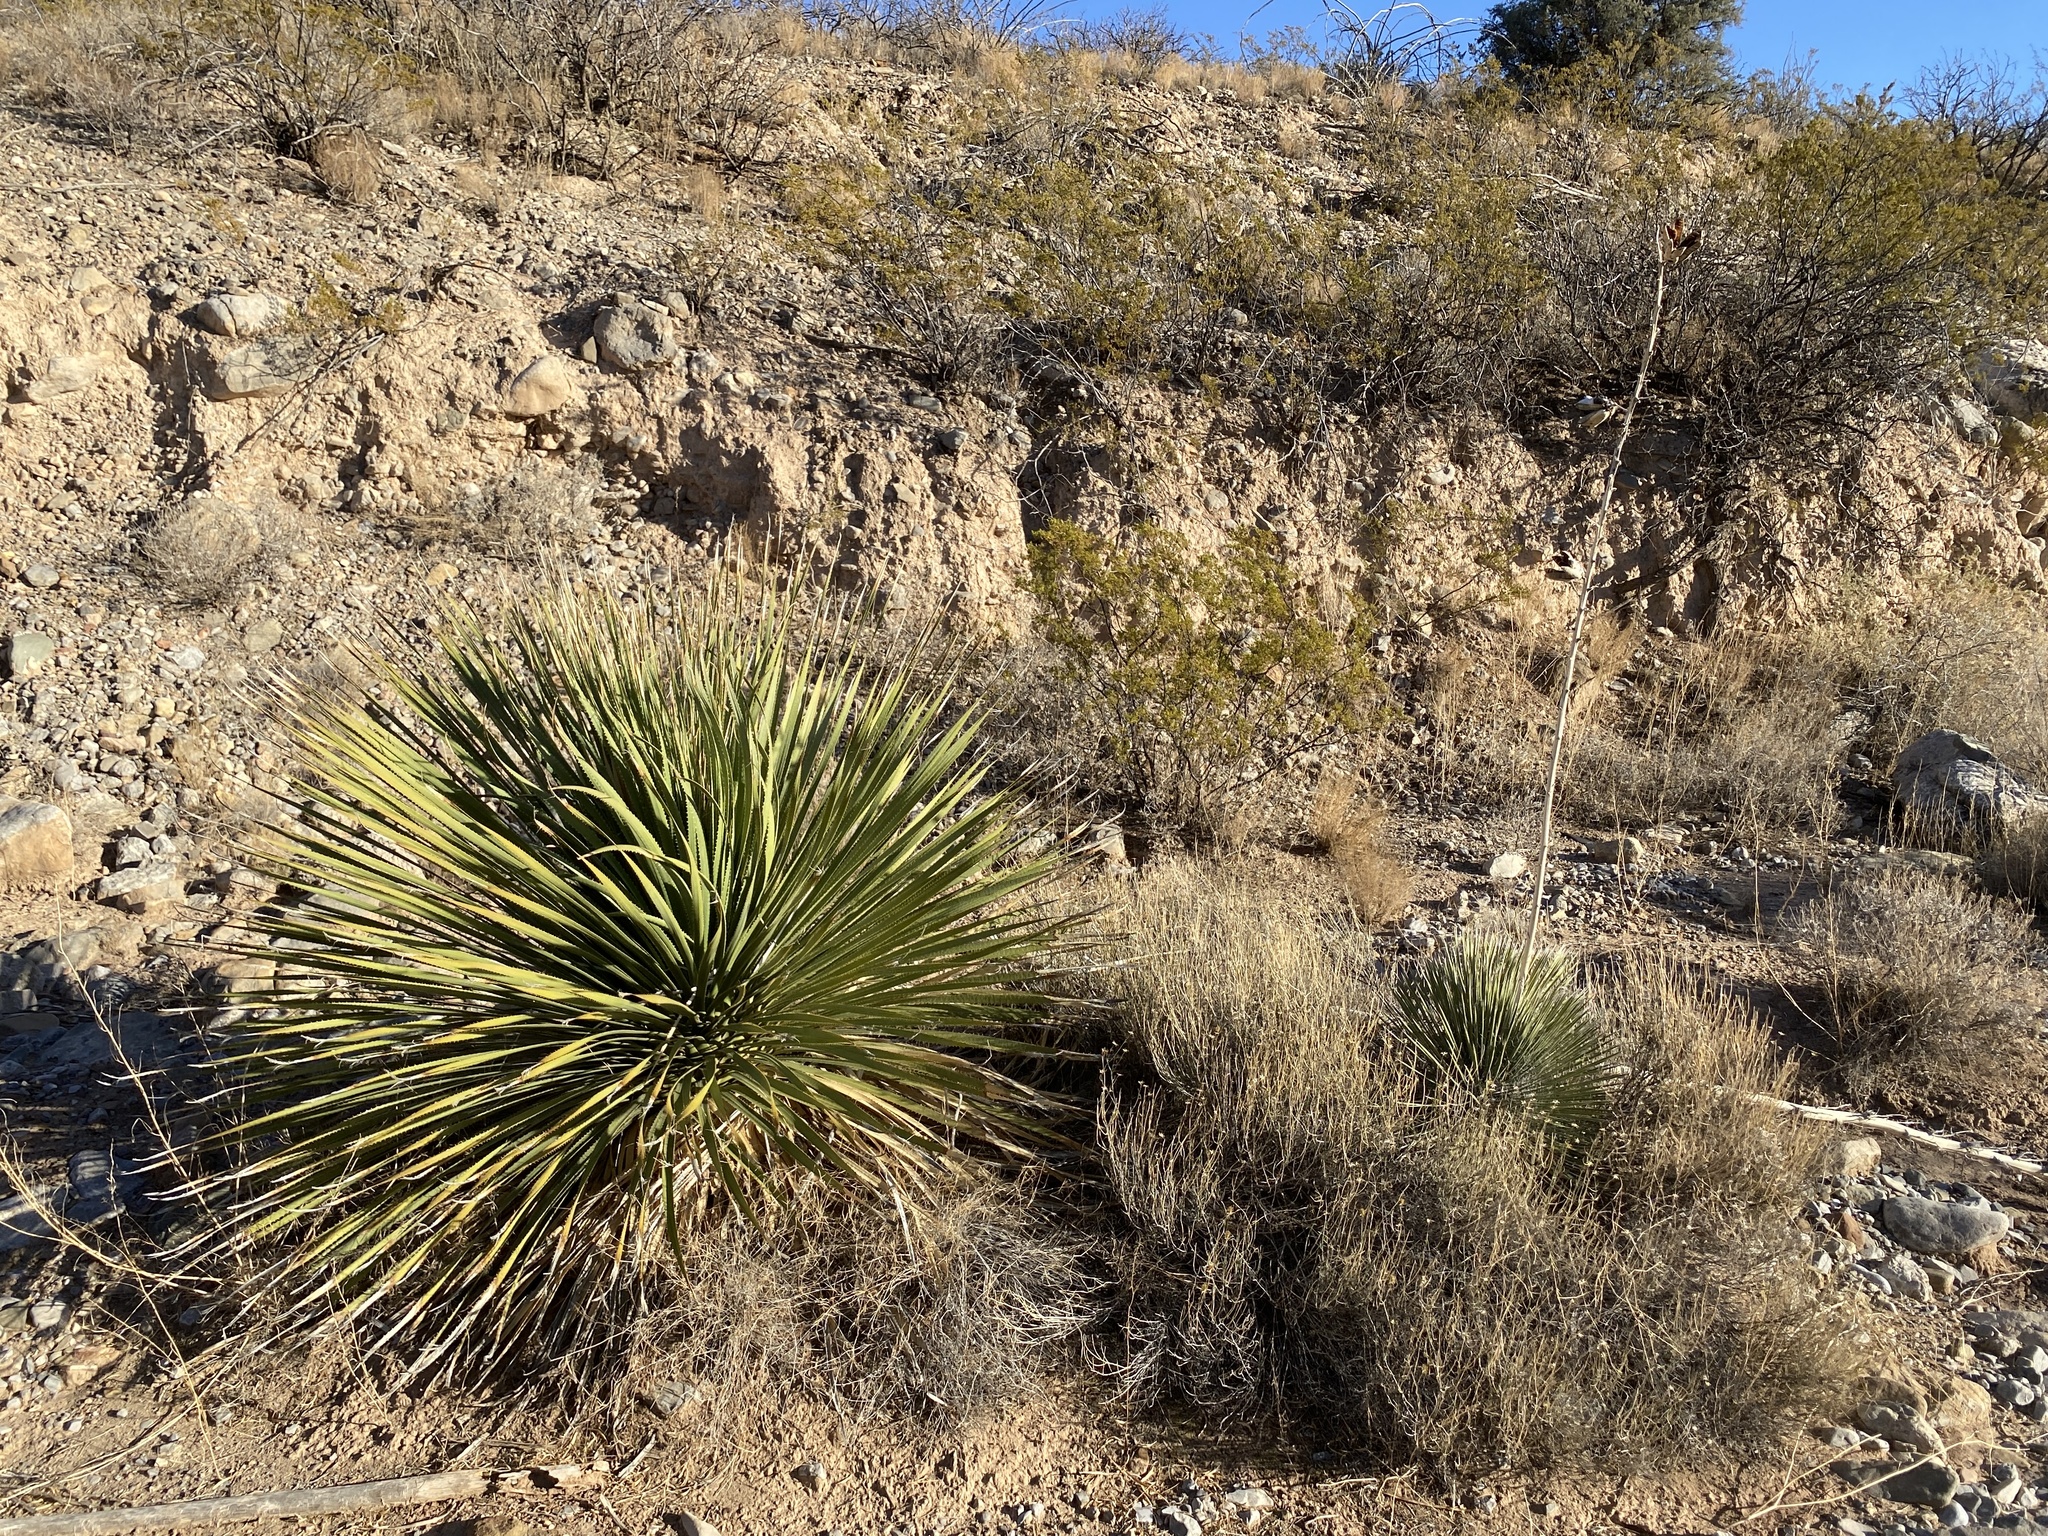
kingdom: Plantae
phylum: Tracheophyta
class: Liliopsida
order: Asparagales
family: Asparagaceae
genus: Dasylirion
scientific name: Dasylirion wheeleri
